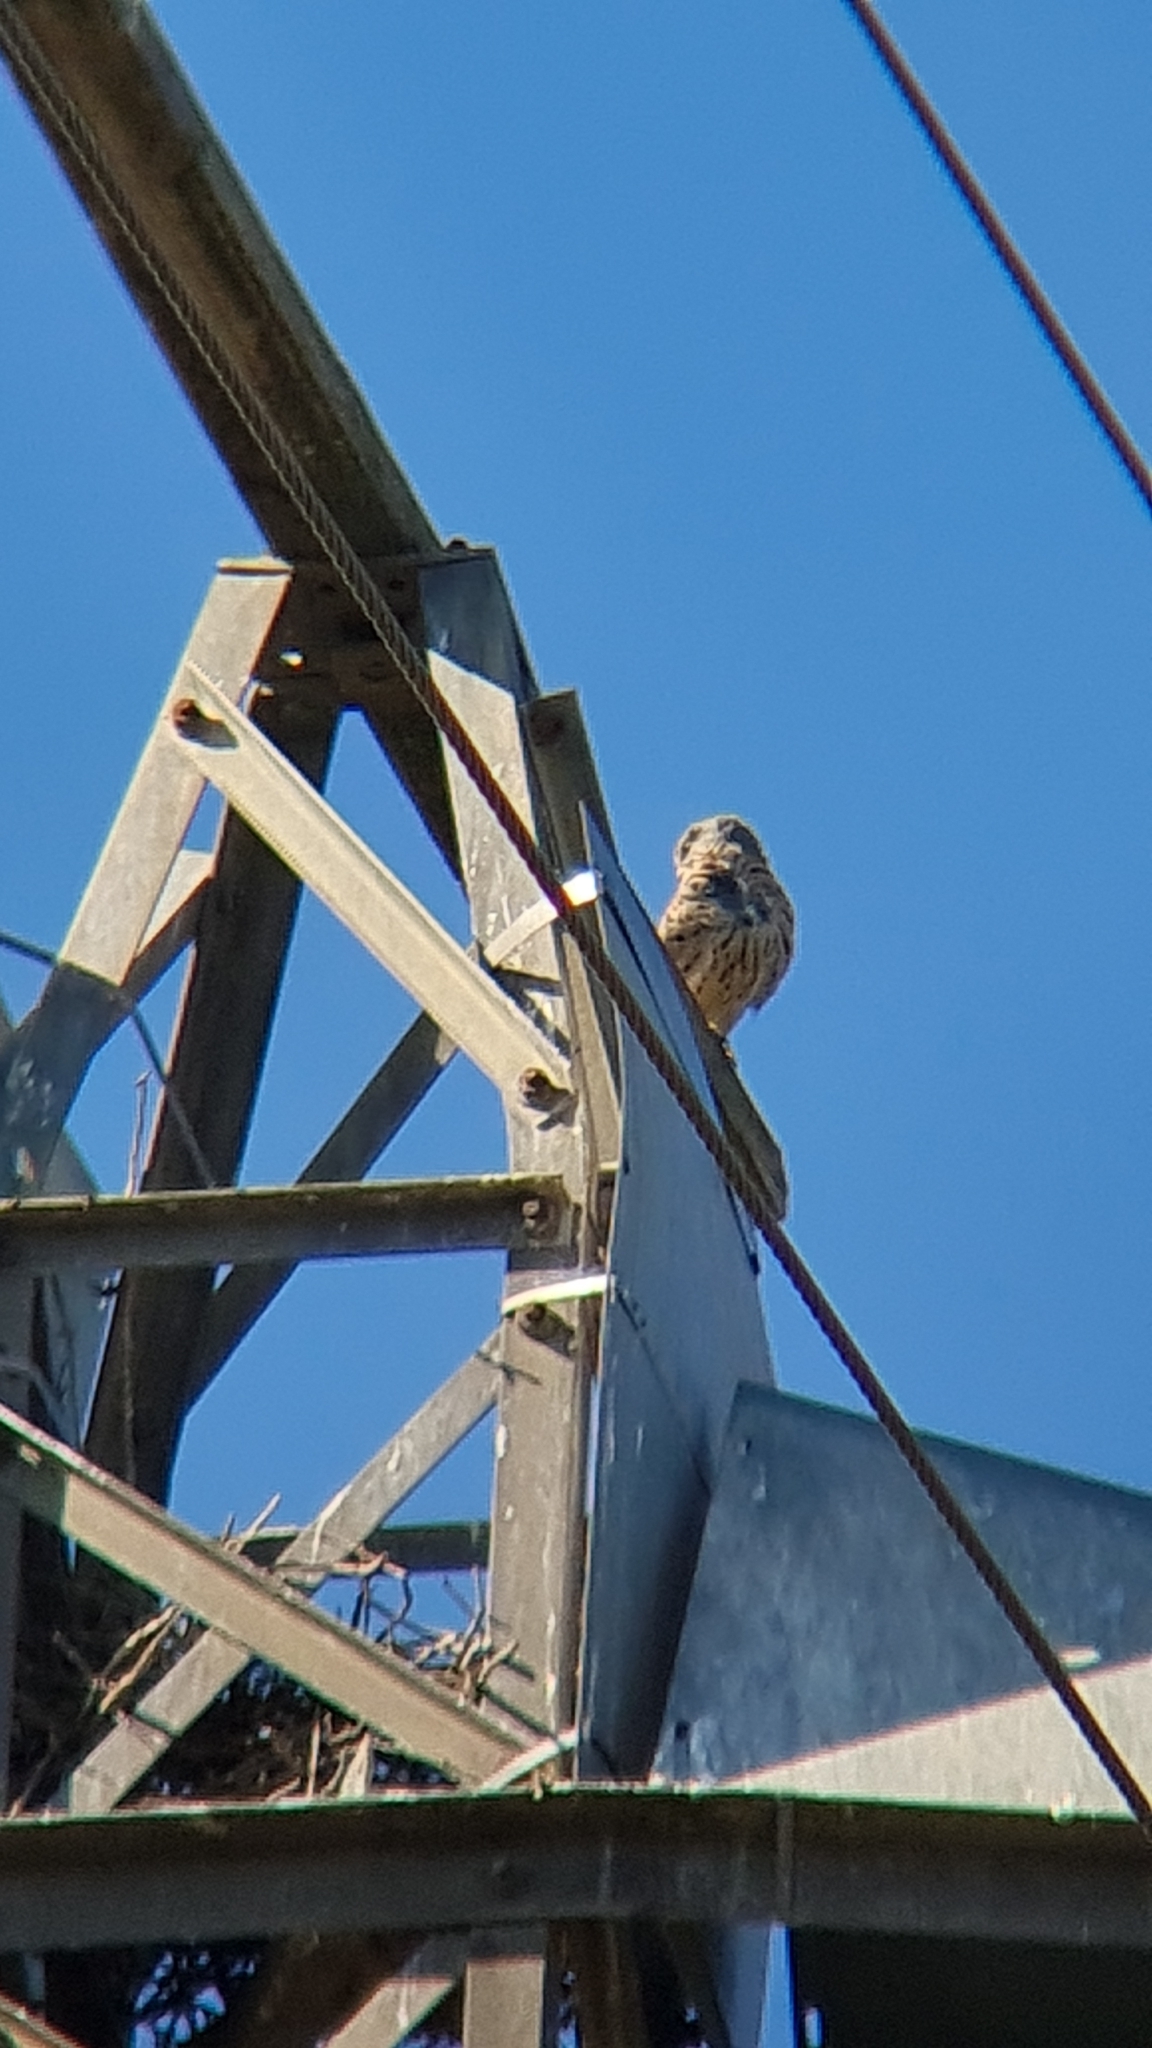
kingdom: Animalia
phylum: Chordata
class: Aves
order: Falconiformes
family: Falconidae
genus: Falco
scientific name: Falco tinnunculus
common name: Common kestrel
